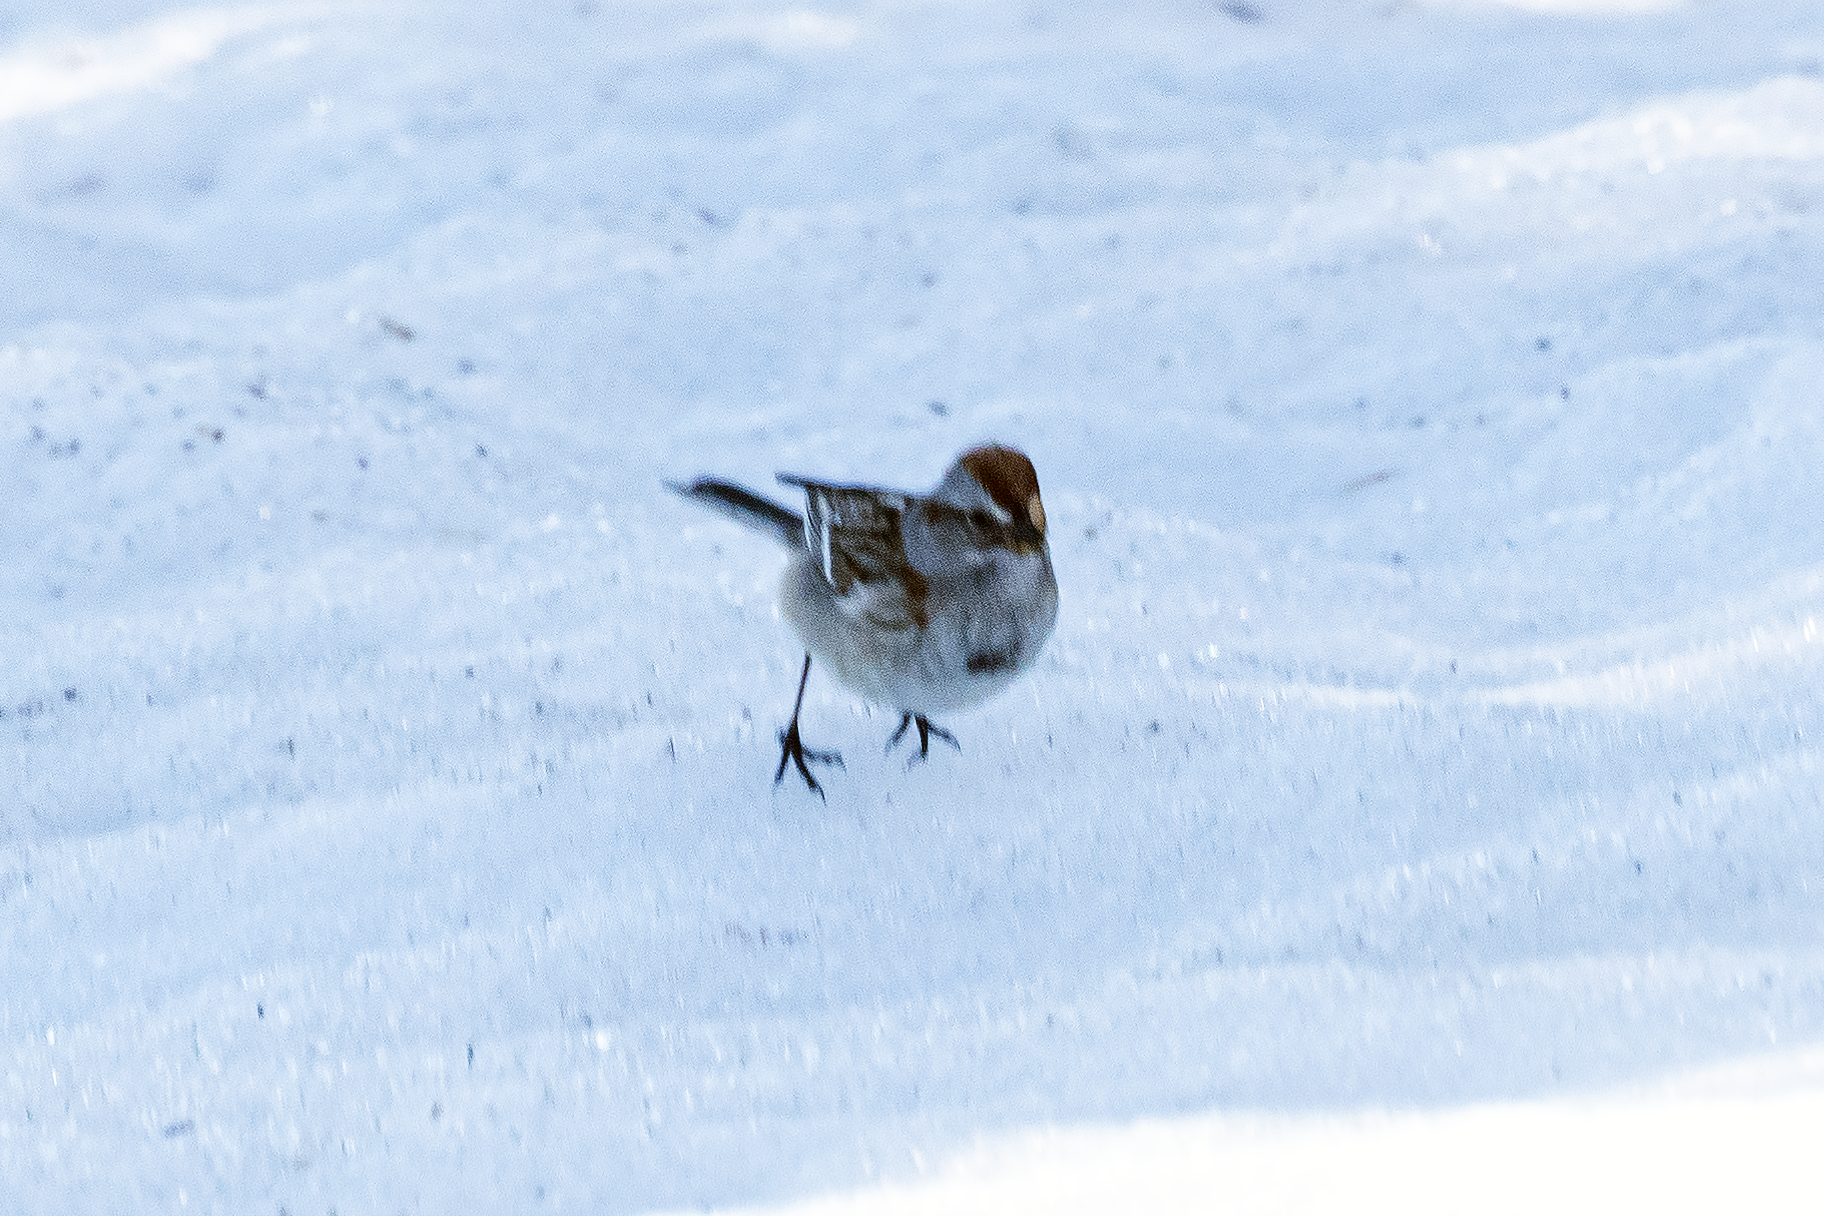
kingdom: Animalia
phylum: Chordata
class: Aves
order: Passeriformes
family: Passerellidae
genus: Spizelloides
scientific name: Spizelloides arborea
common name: American tree sparrow
